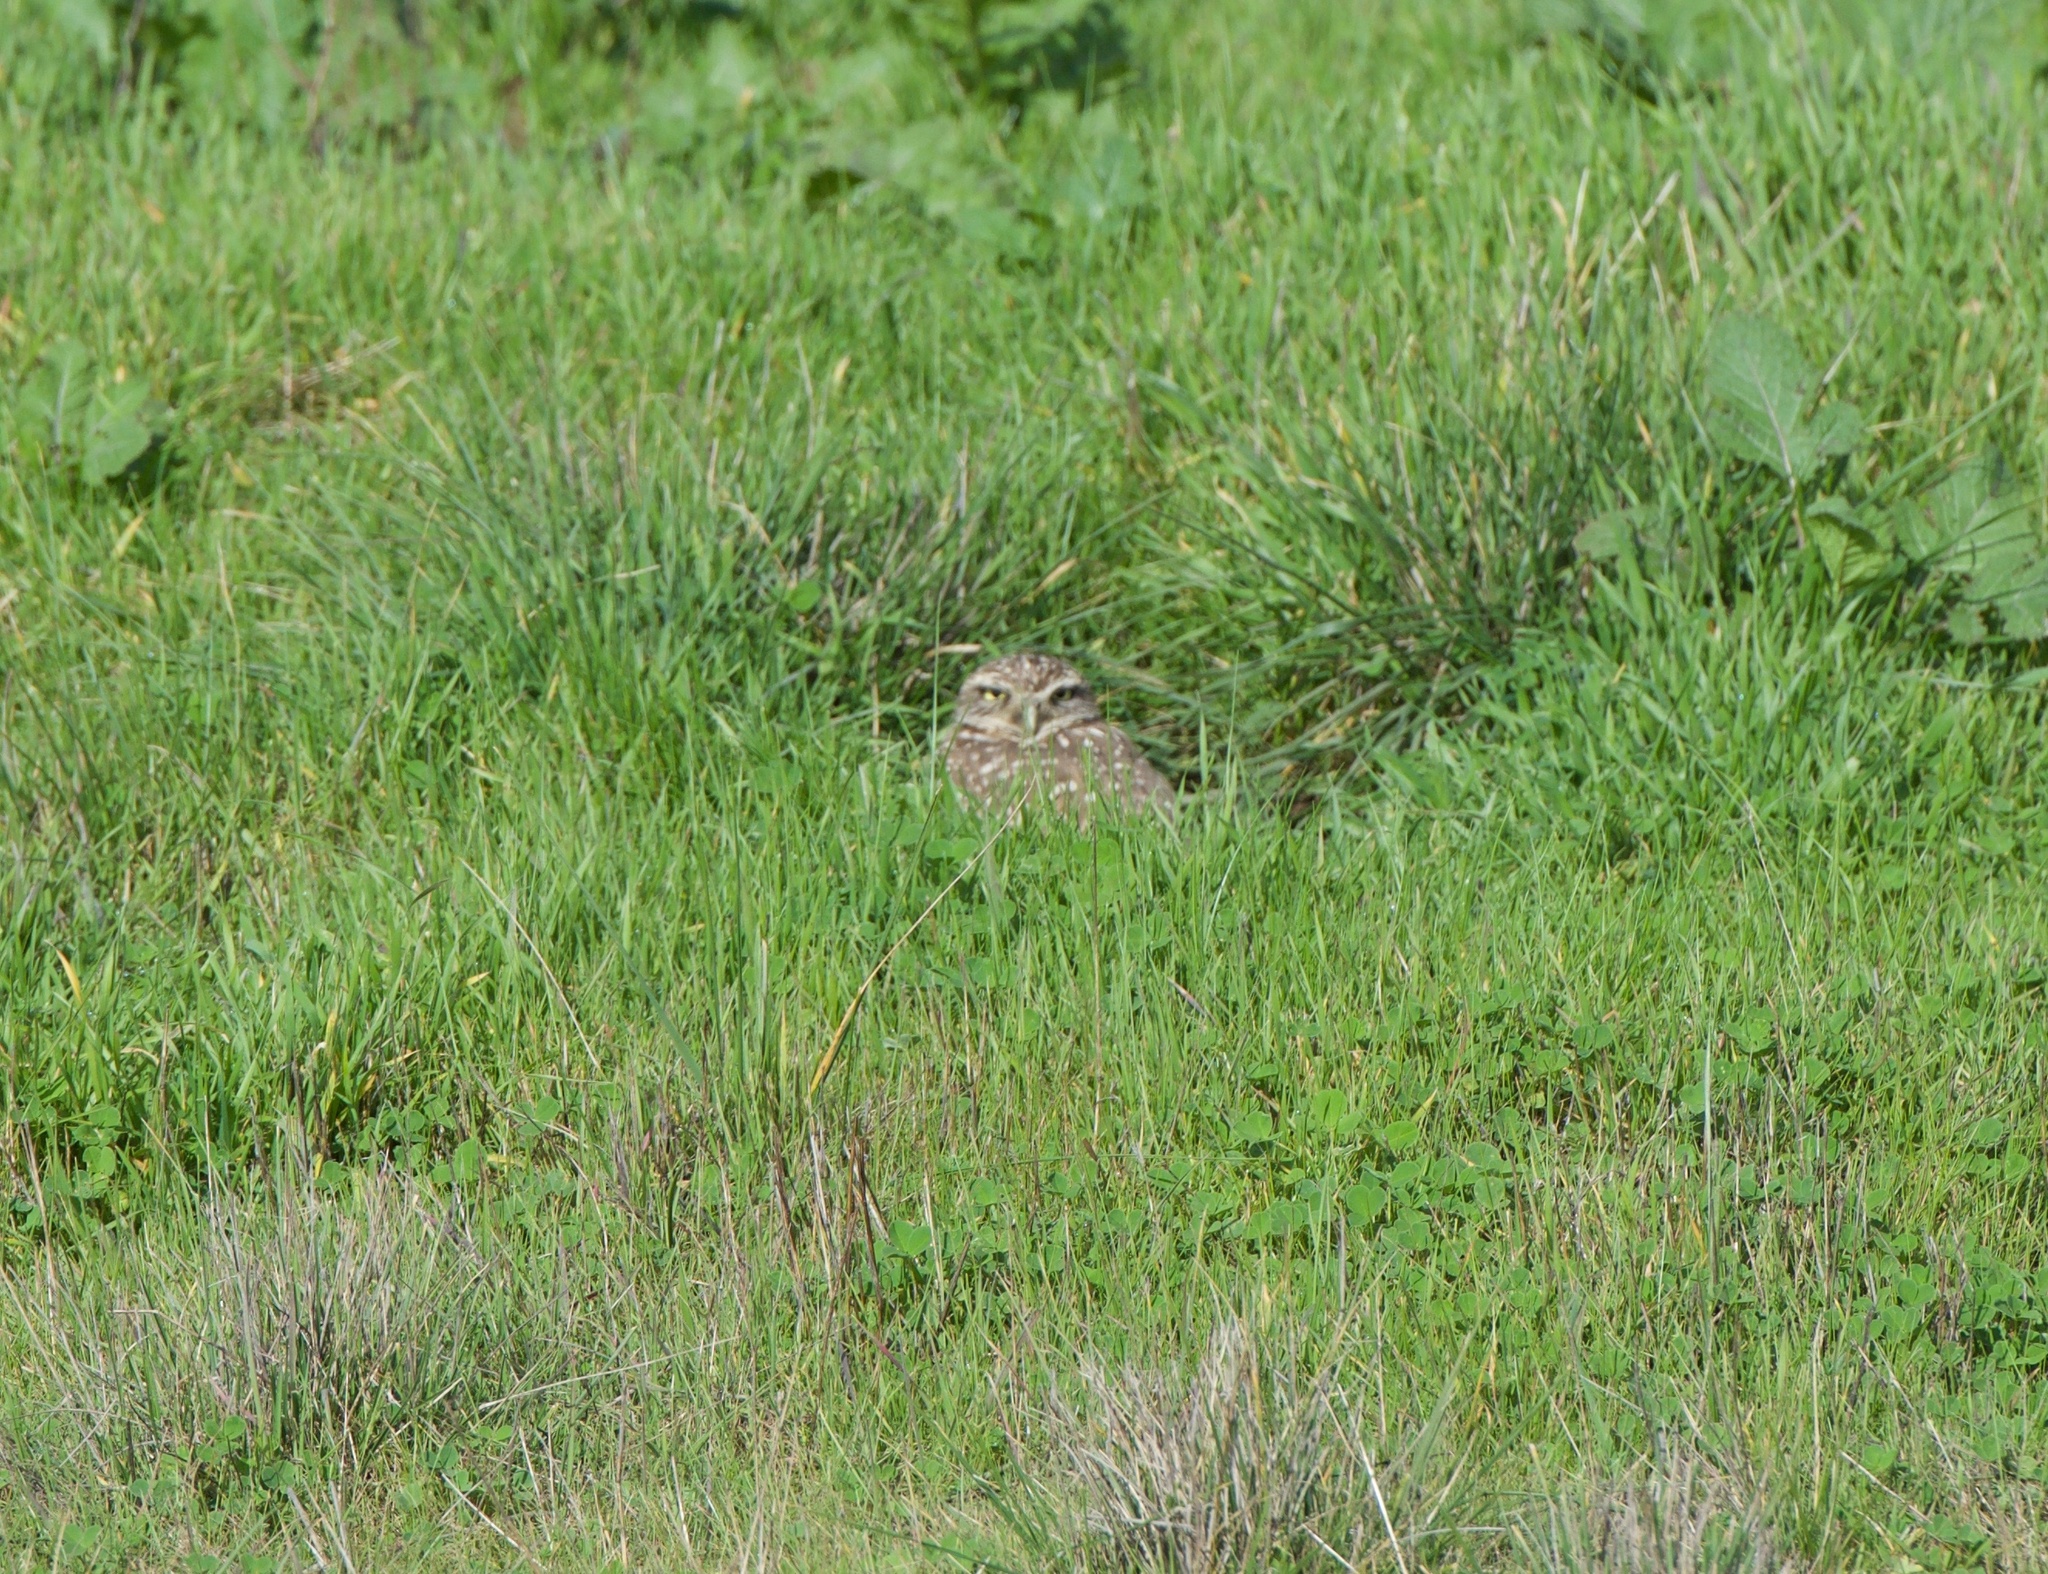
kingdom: Animalia
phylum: Chordata
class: Aves
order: Strigiformes
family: Strigidae
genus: Athene
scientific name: Athene cunicularia
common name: Burrowing owl
